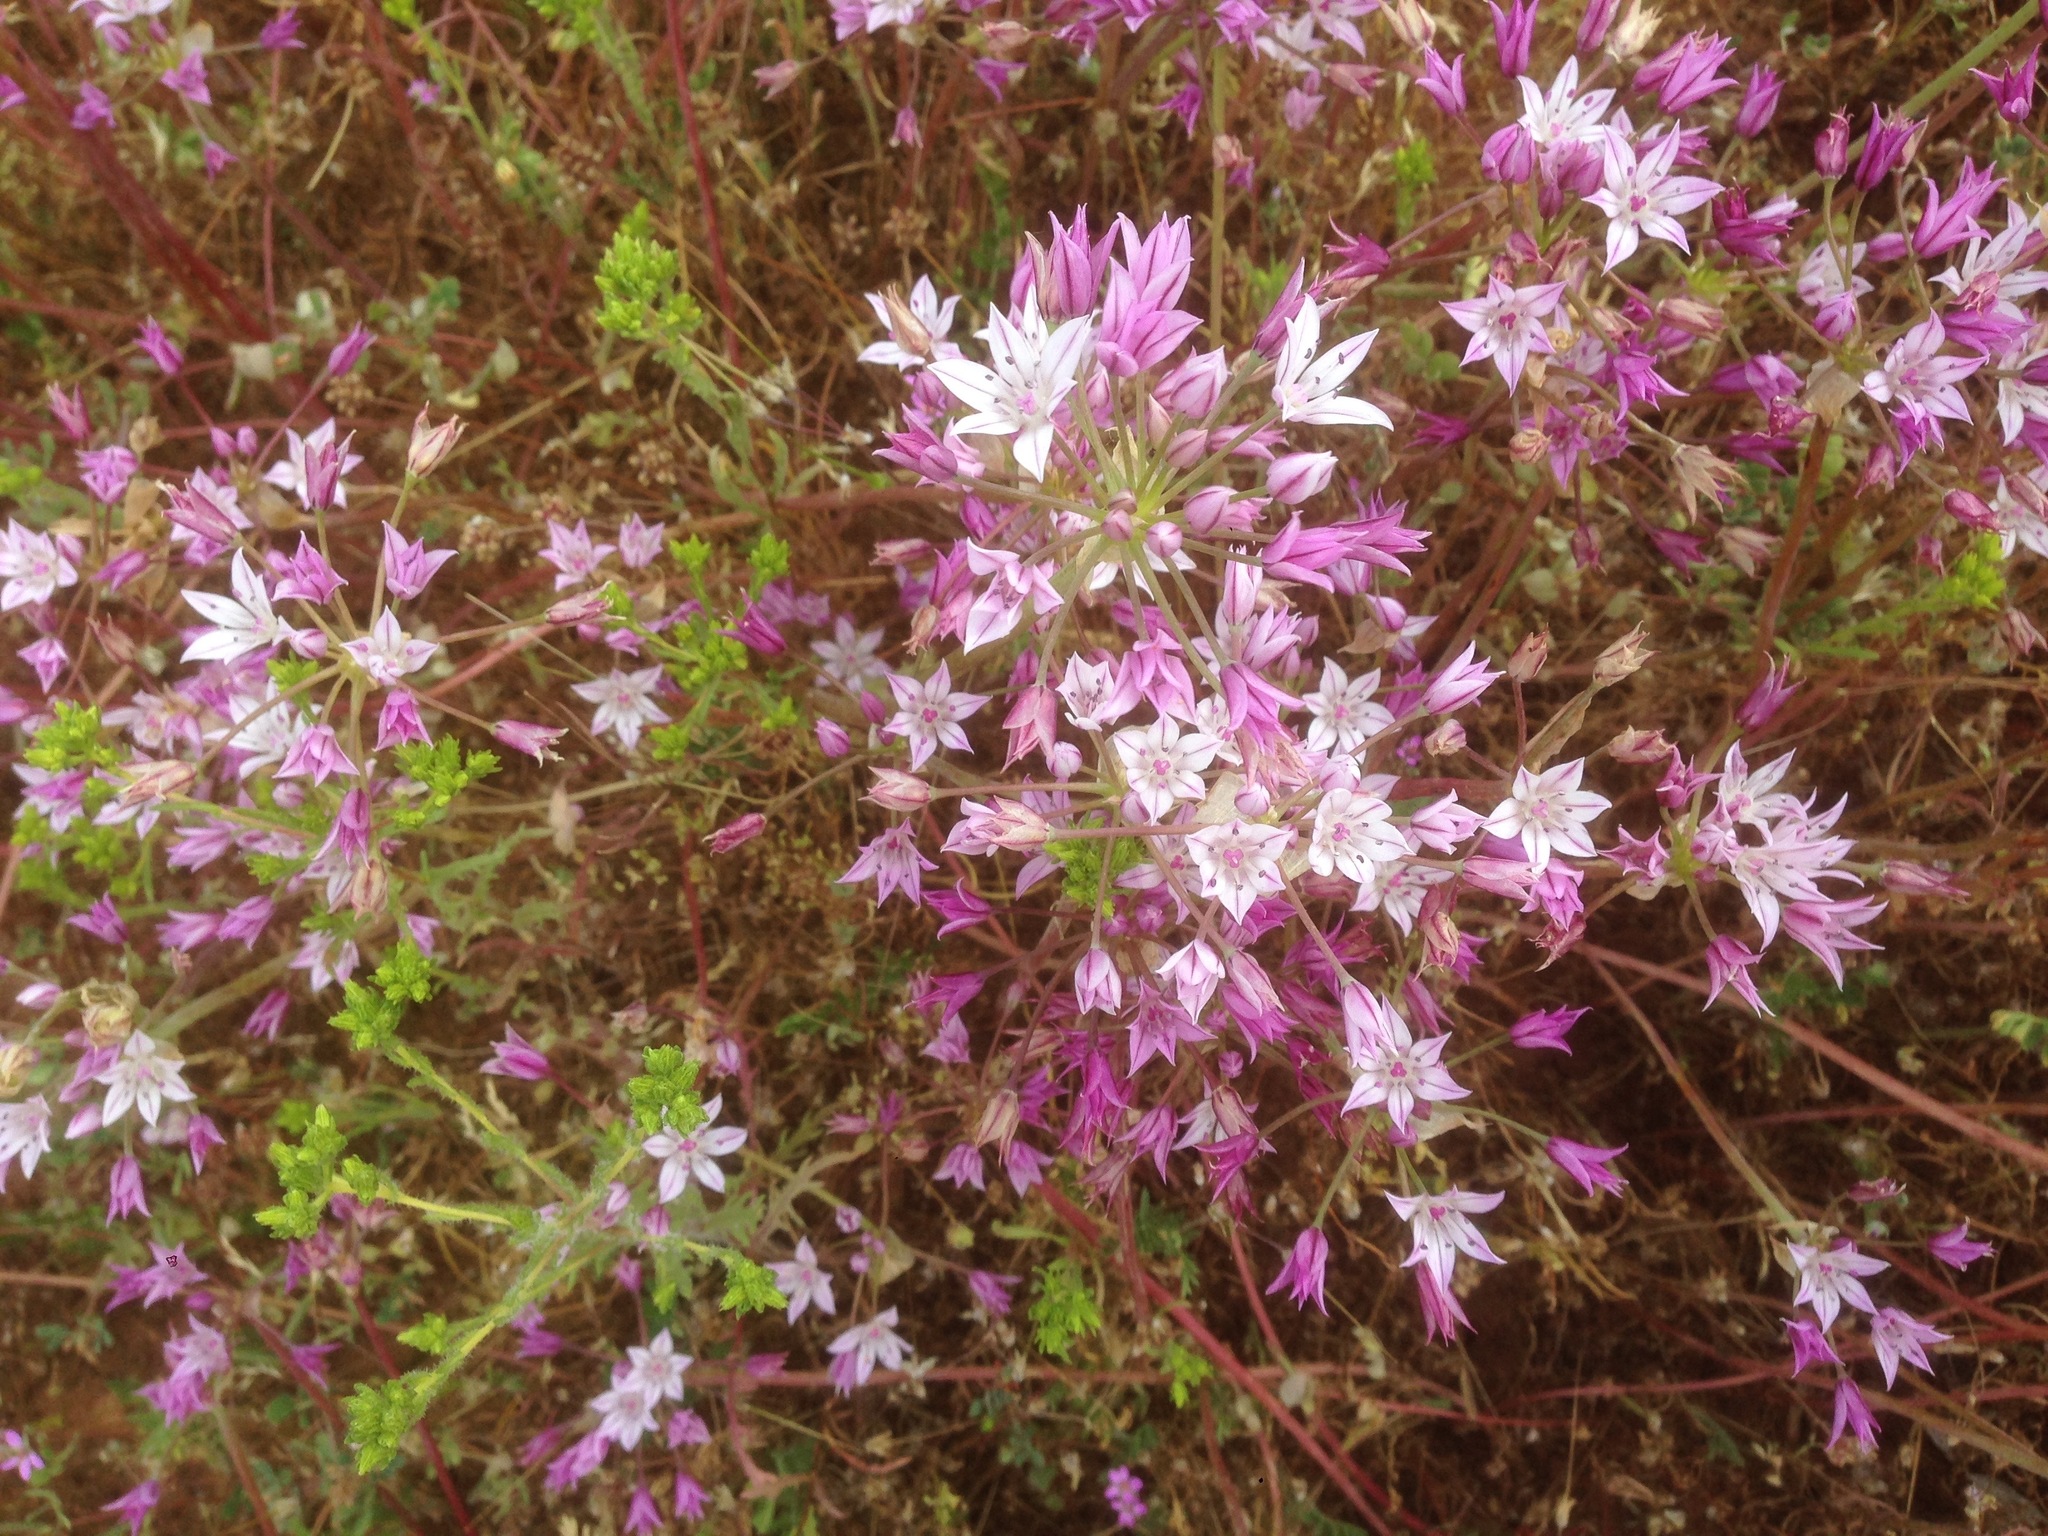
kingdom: Plantae
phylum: Tracheophyta
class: Liliopsida
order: Asparagales
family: Amaryllidaceae
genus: Allium
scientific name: Allium praecox
